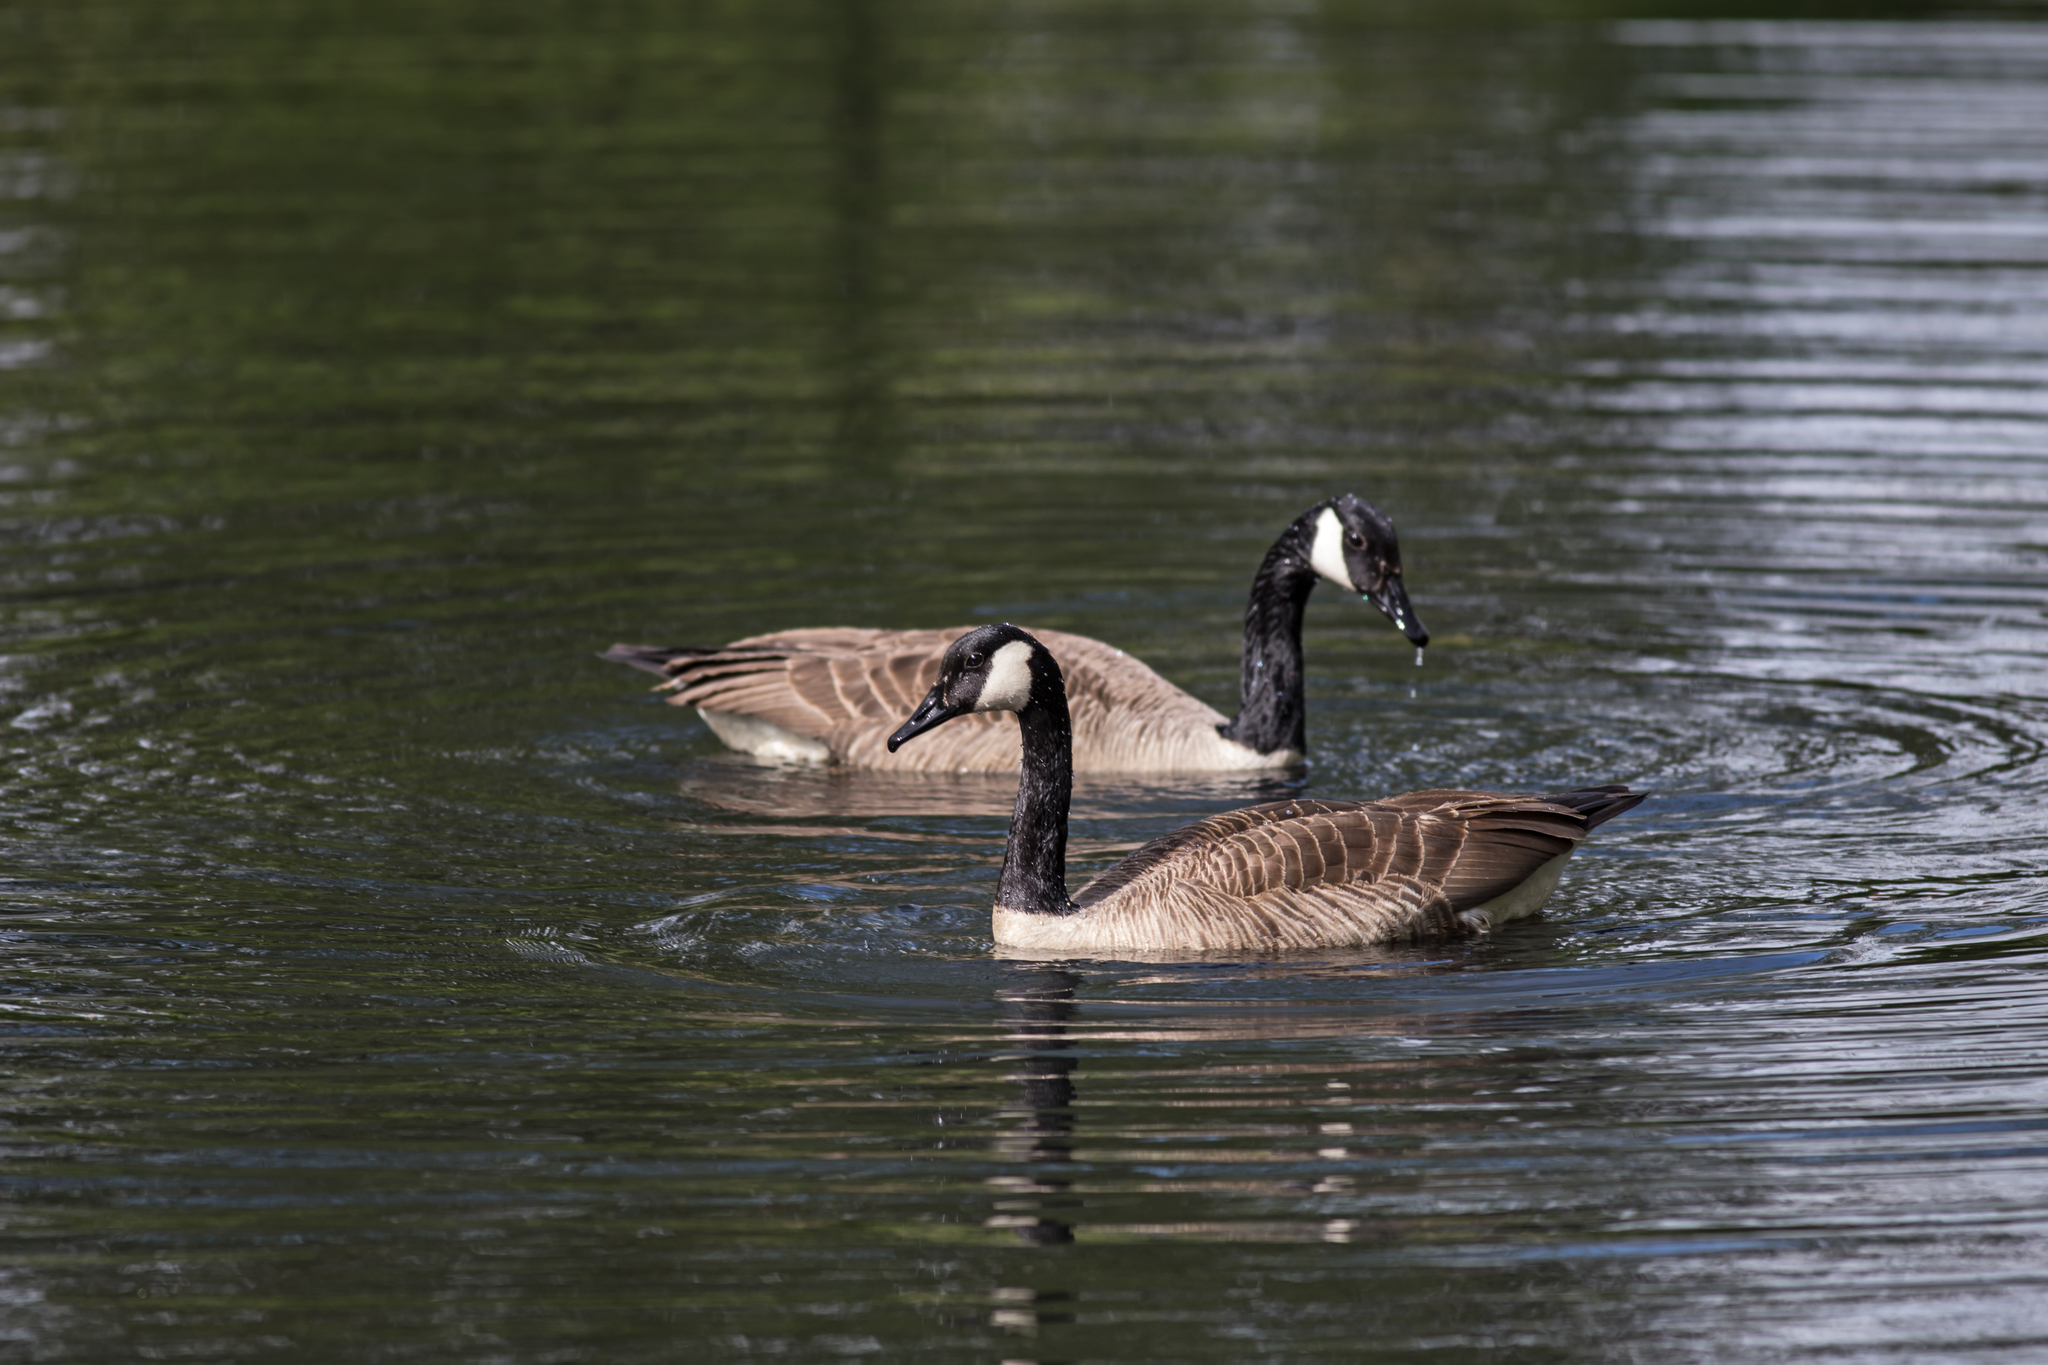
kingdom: Animalia
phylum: Chordata
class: Aves
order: Anseriformes
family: Anatidae
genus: Branta
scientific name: Branta canadensis
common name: Canada goose
